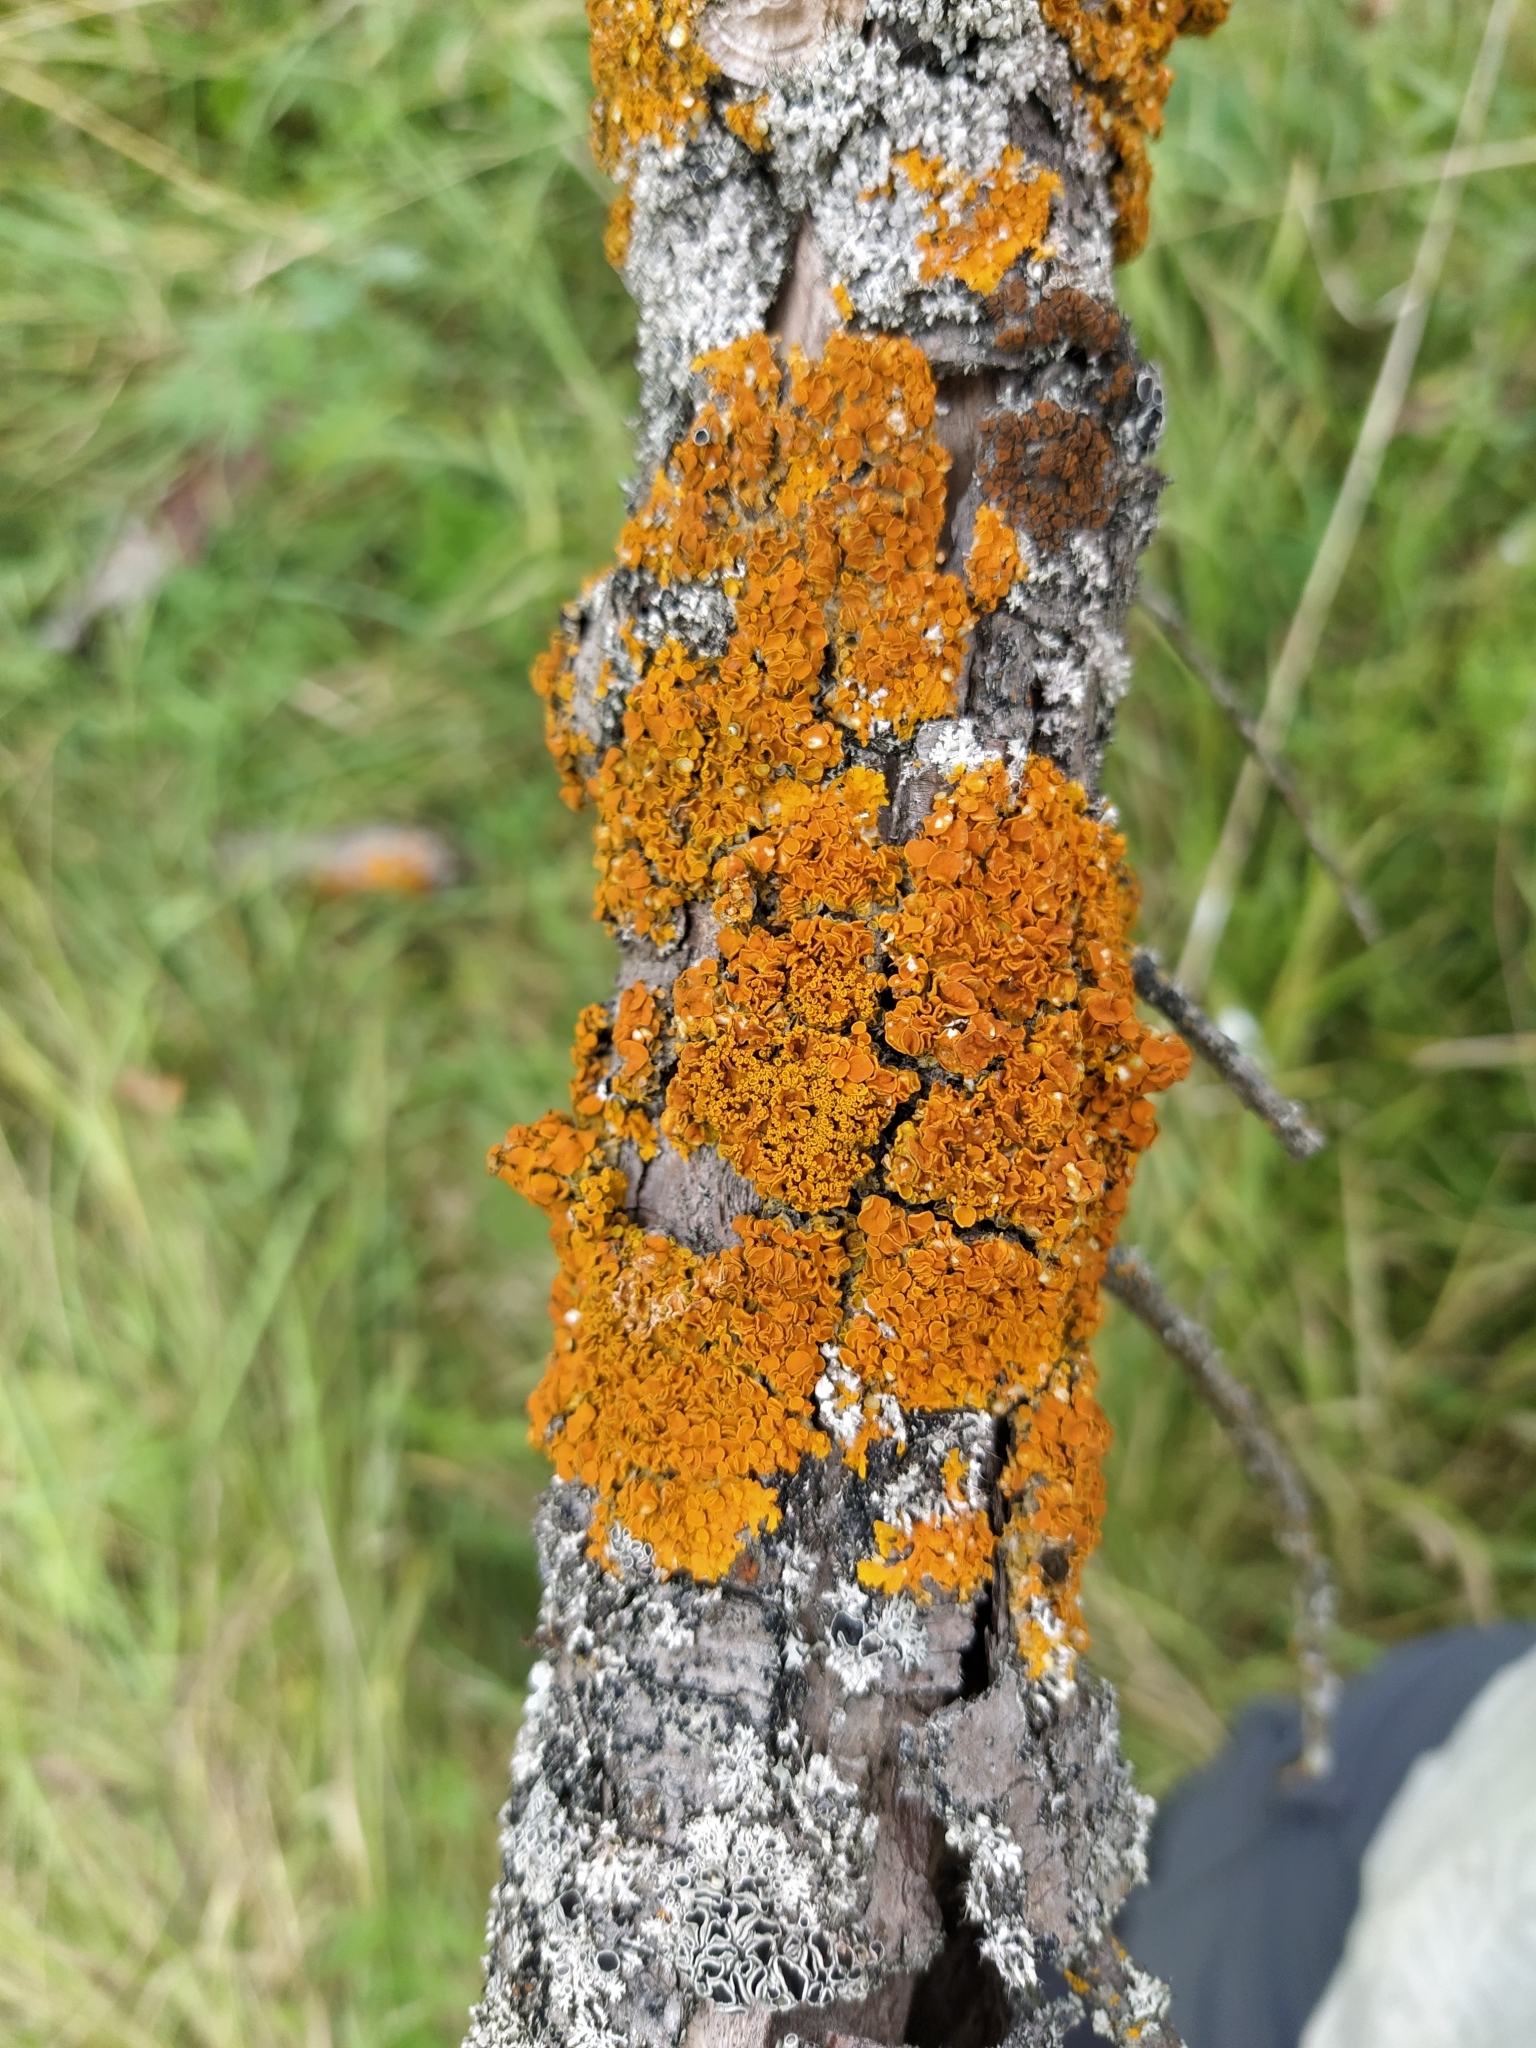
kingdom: Fungi
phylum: Ascomycota
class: Lecanoromycetes
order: Teloschistales
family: Teloschistaceae
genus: Xanthoria
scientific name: Xanthoria parietina
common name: Common orange lichen
